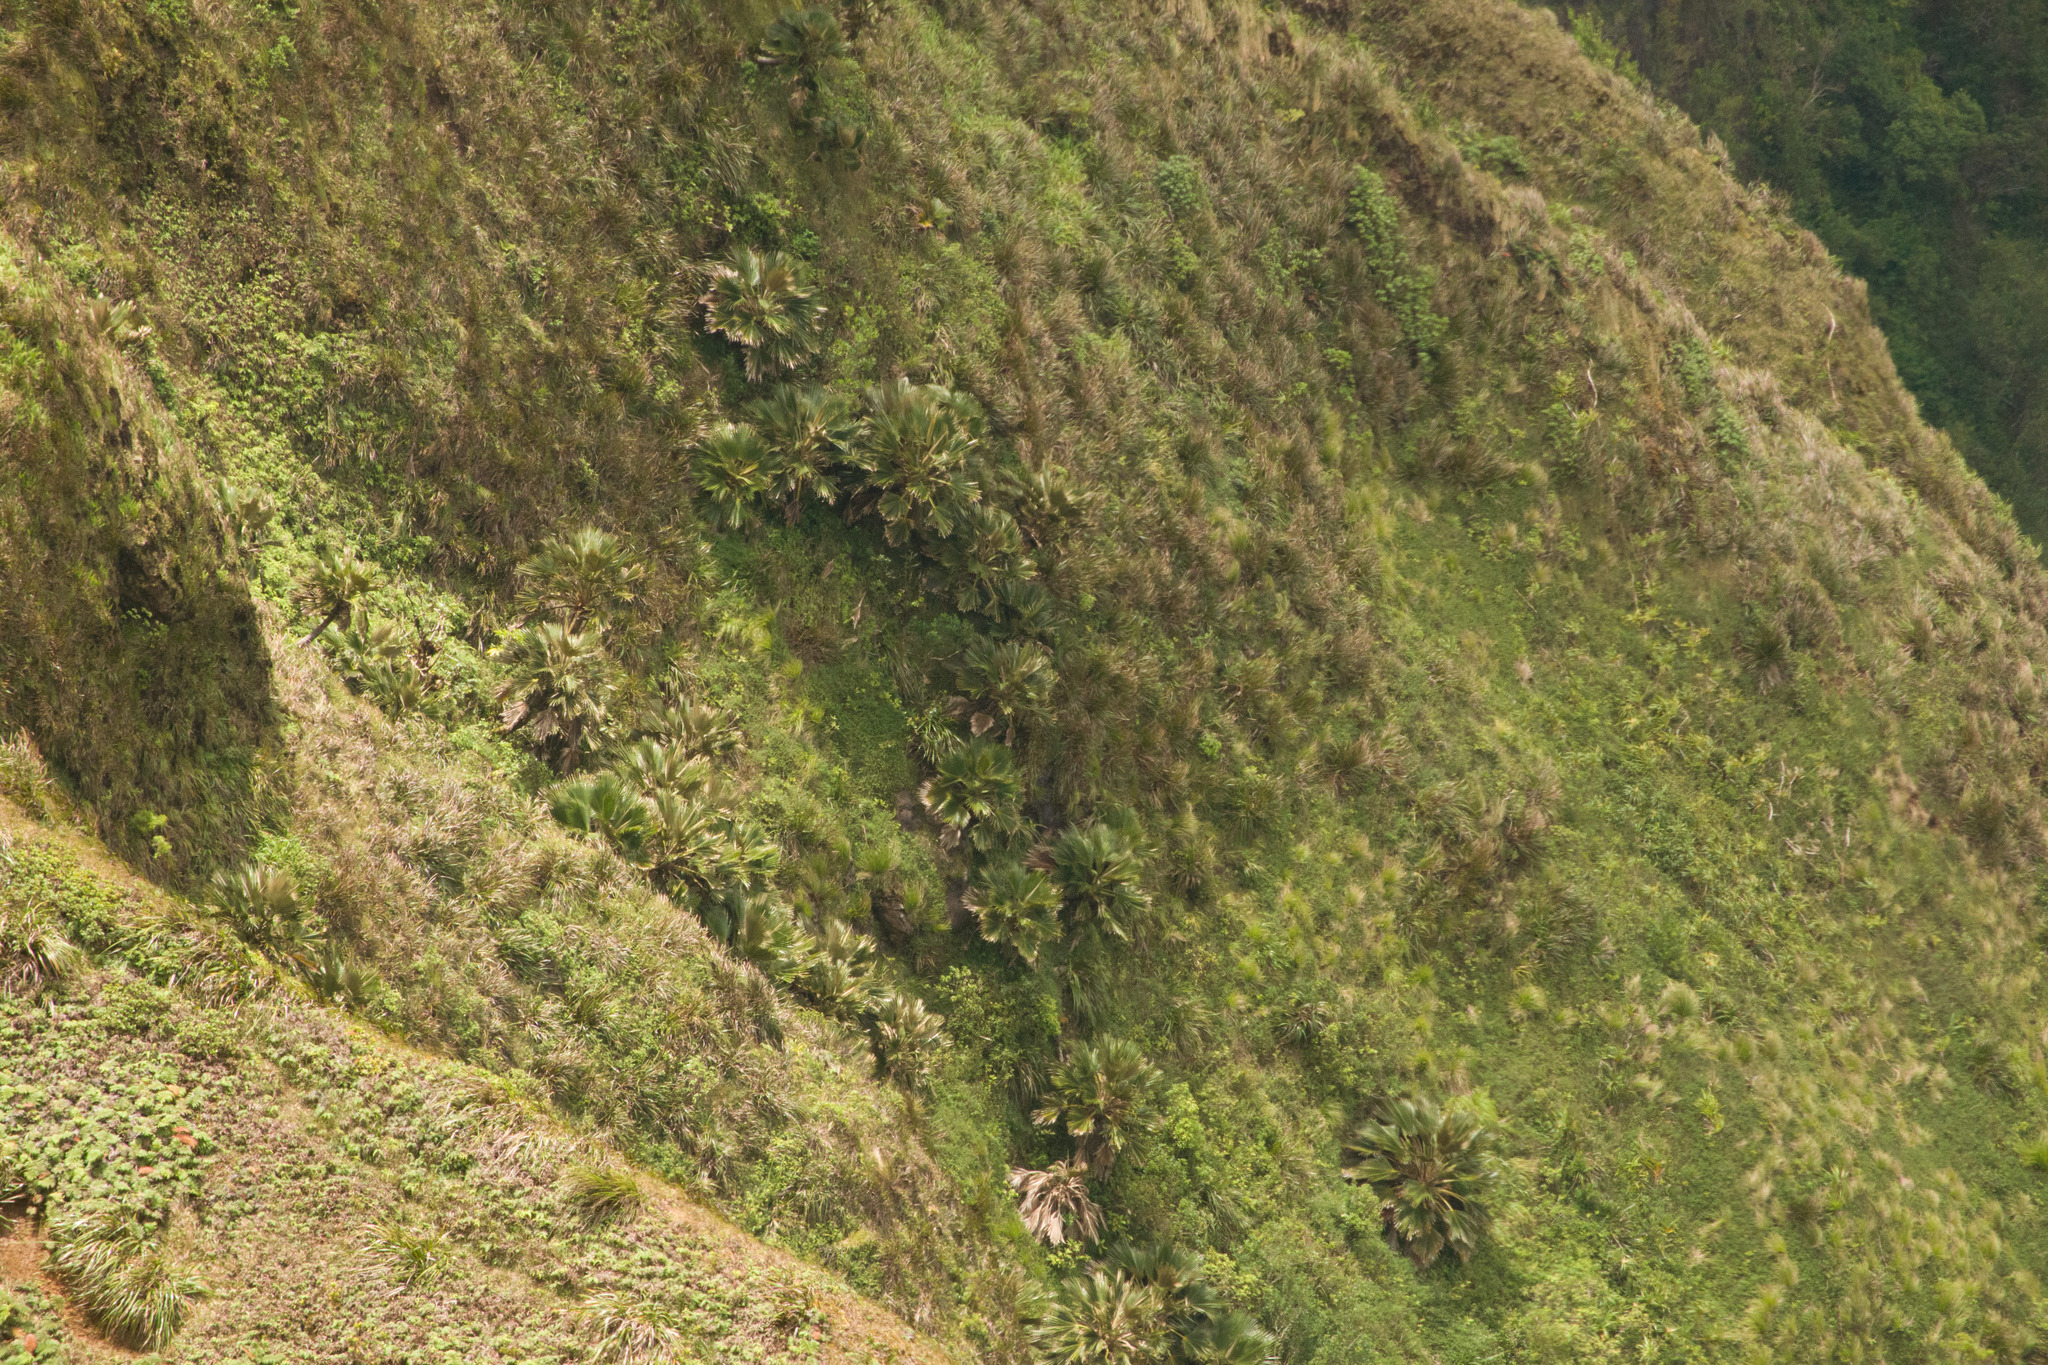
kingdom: Plantae
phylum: Tracheophyta
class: Liliopsida
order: Arecales
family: Arecaceae
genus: Pritchardia
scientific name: Pritchardia martii
